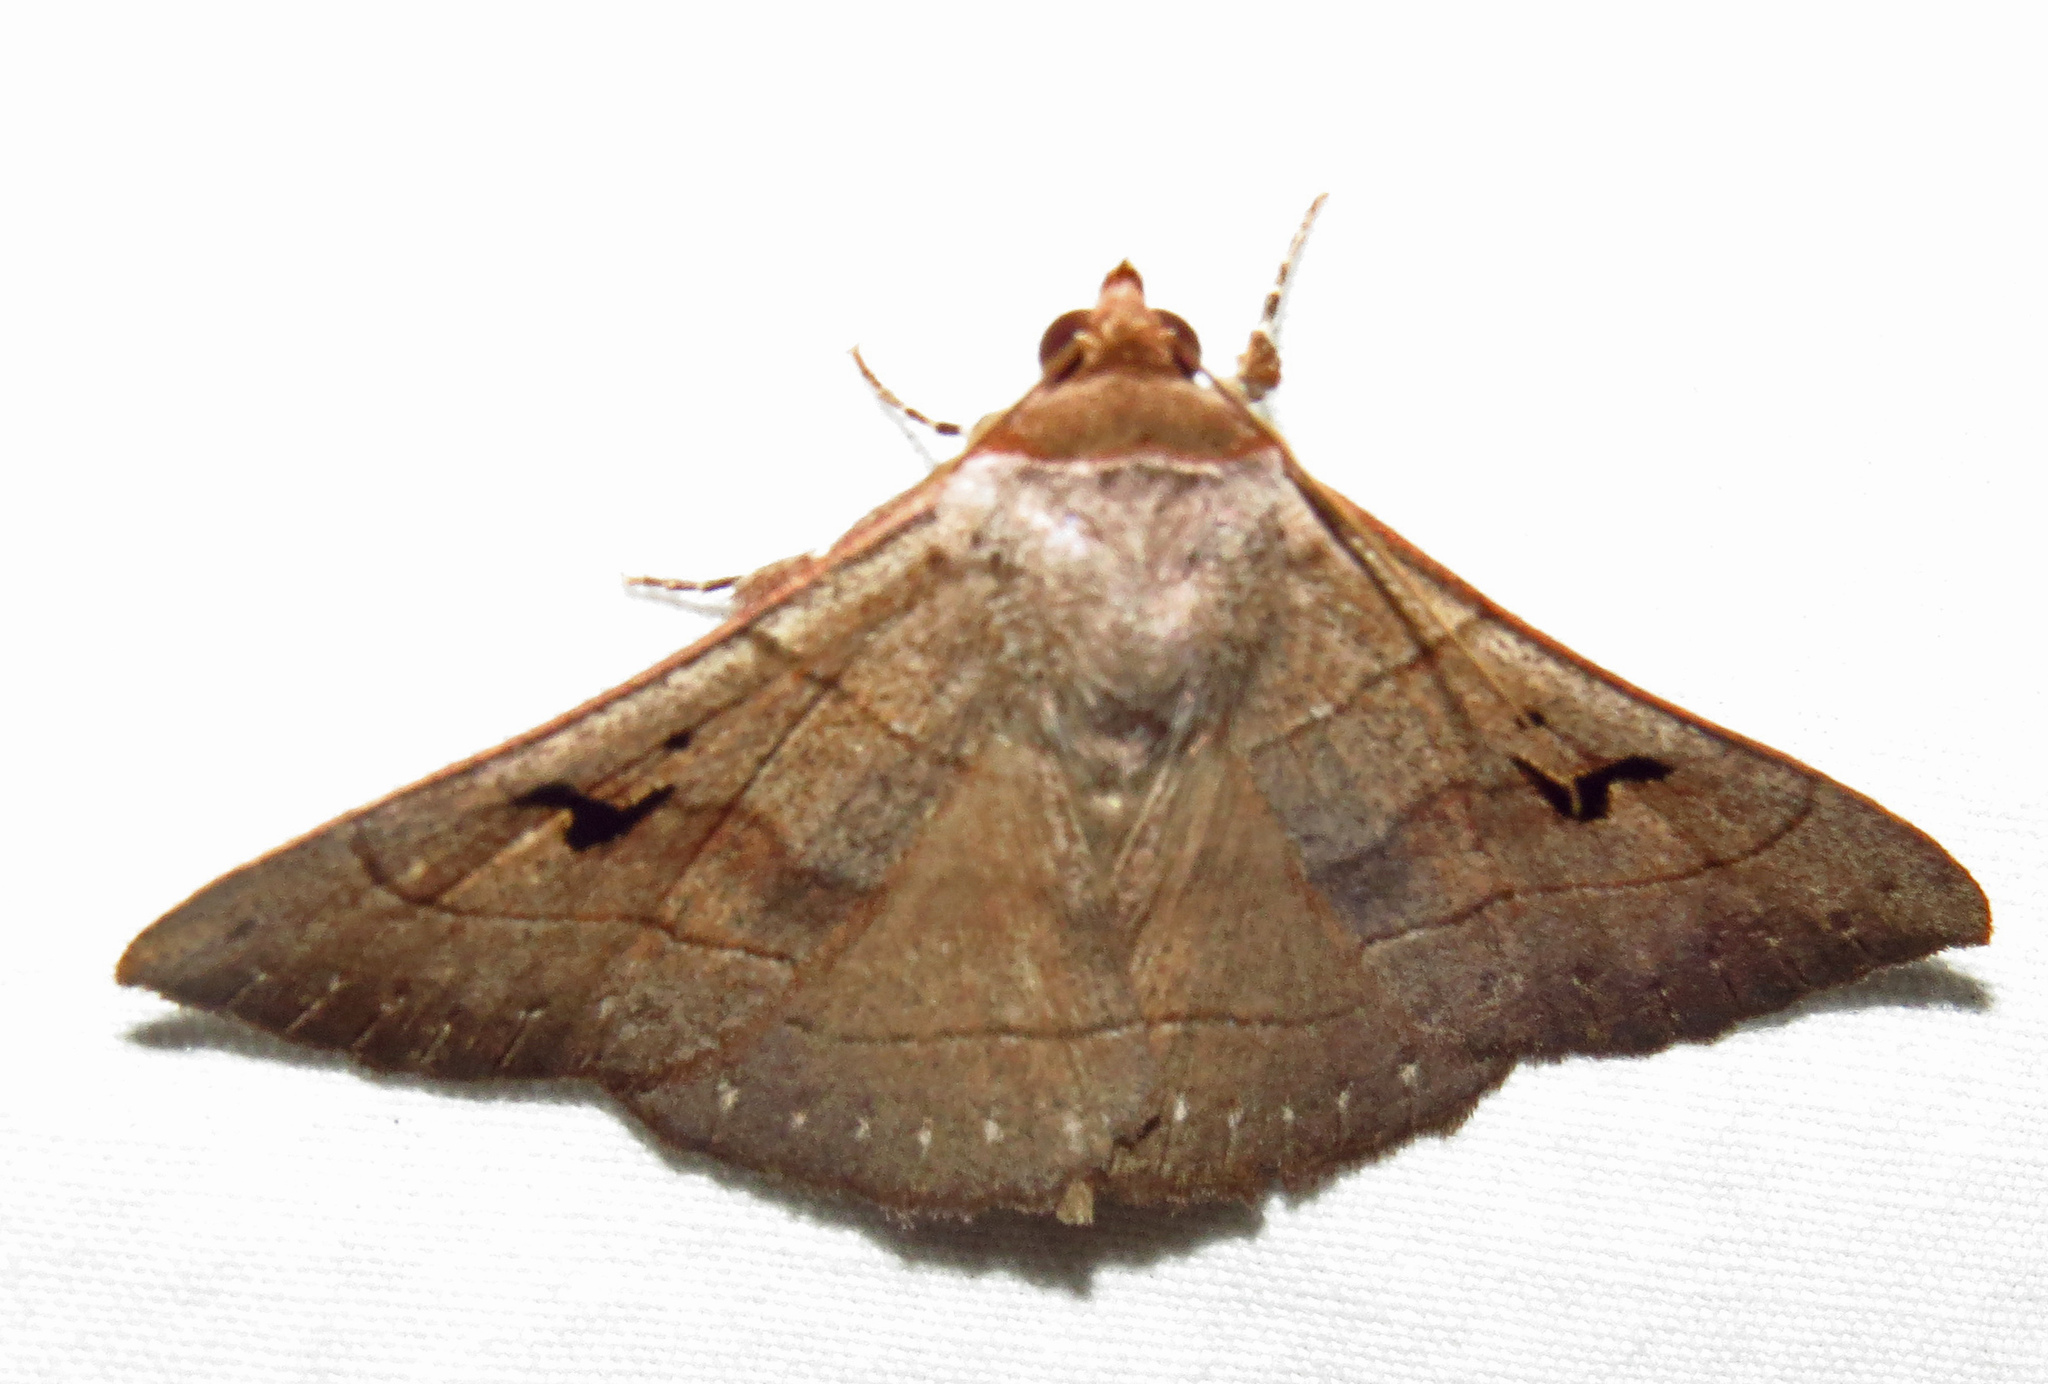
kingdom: Animalia
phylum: Arthropoda
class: Insecta
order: Lepidoptera
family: Erebidae
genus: Panopoda
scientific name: Panopoda carneicosta
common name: Brown panopoda moth
